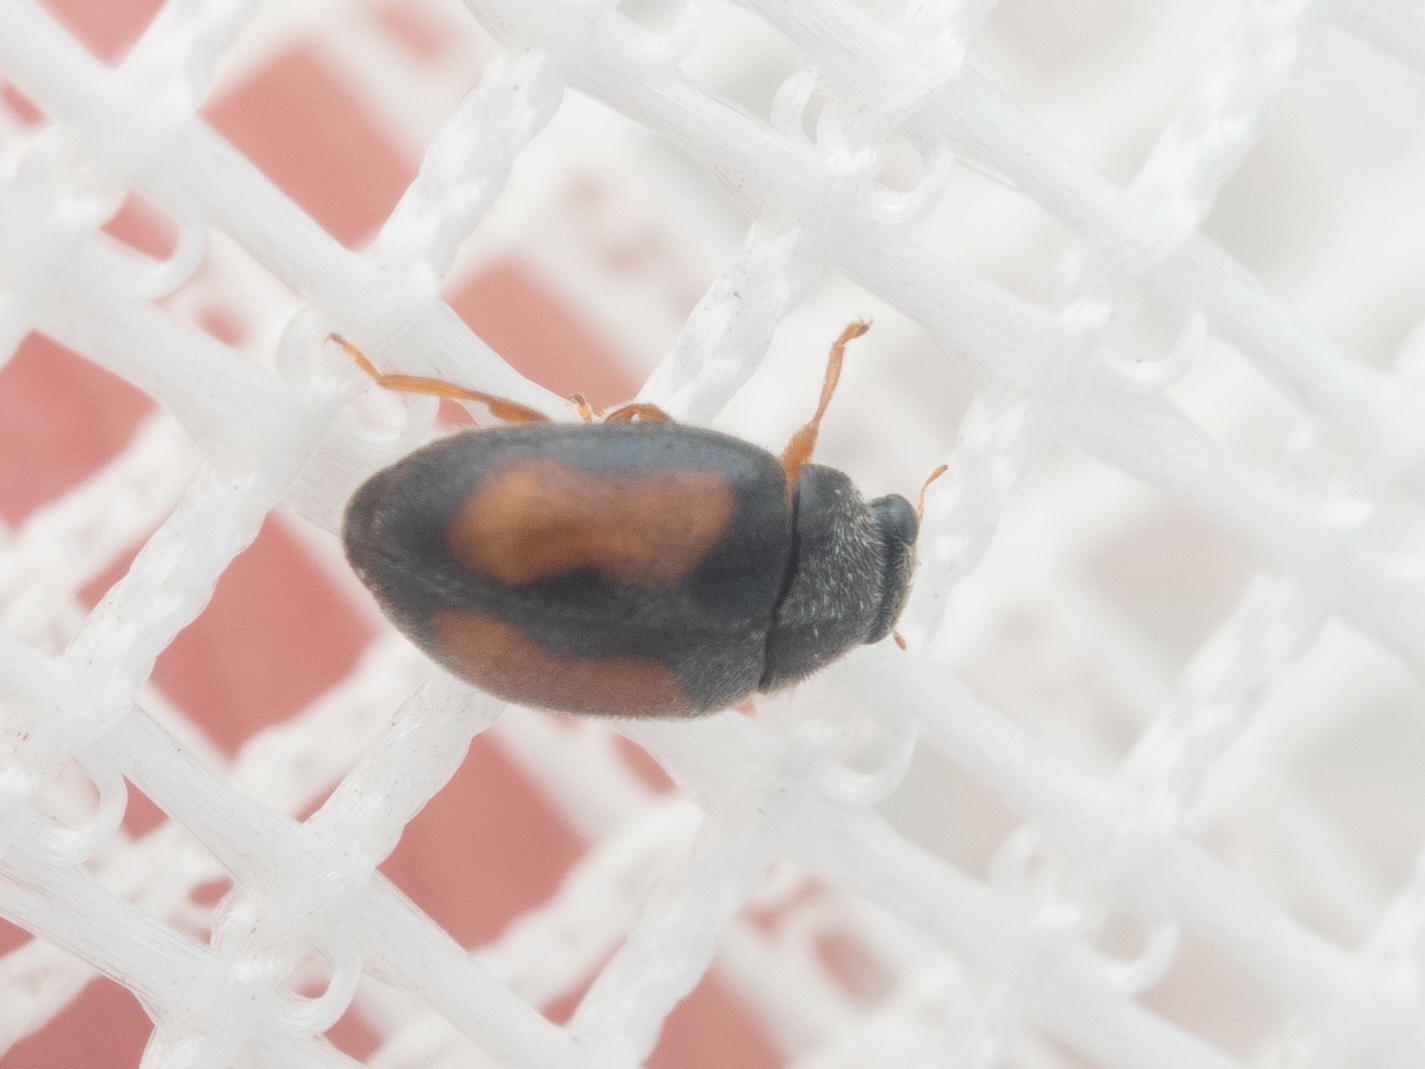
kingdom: Animalia
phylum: Arthropoda
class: Insecta
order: Coleoptera
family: Coccinellidae
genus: Nephus
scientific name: Nephus redtenbacheri
